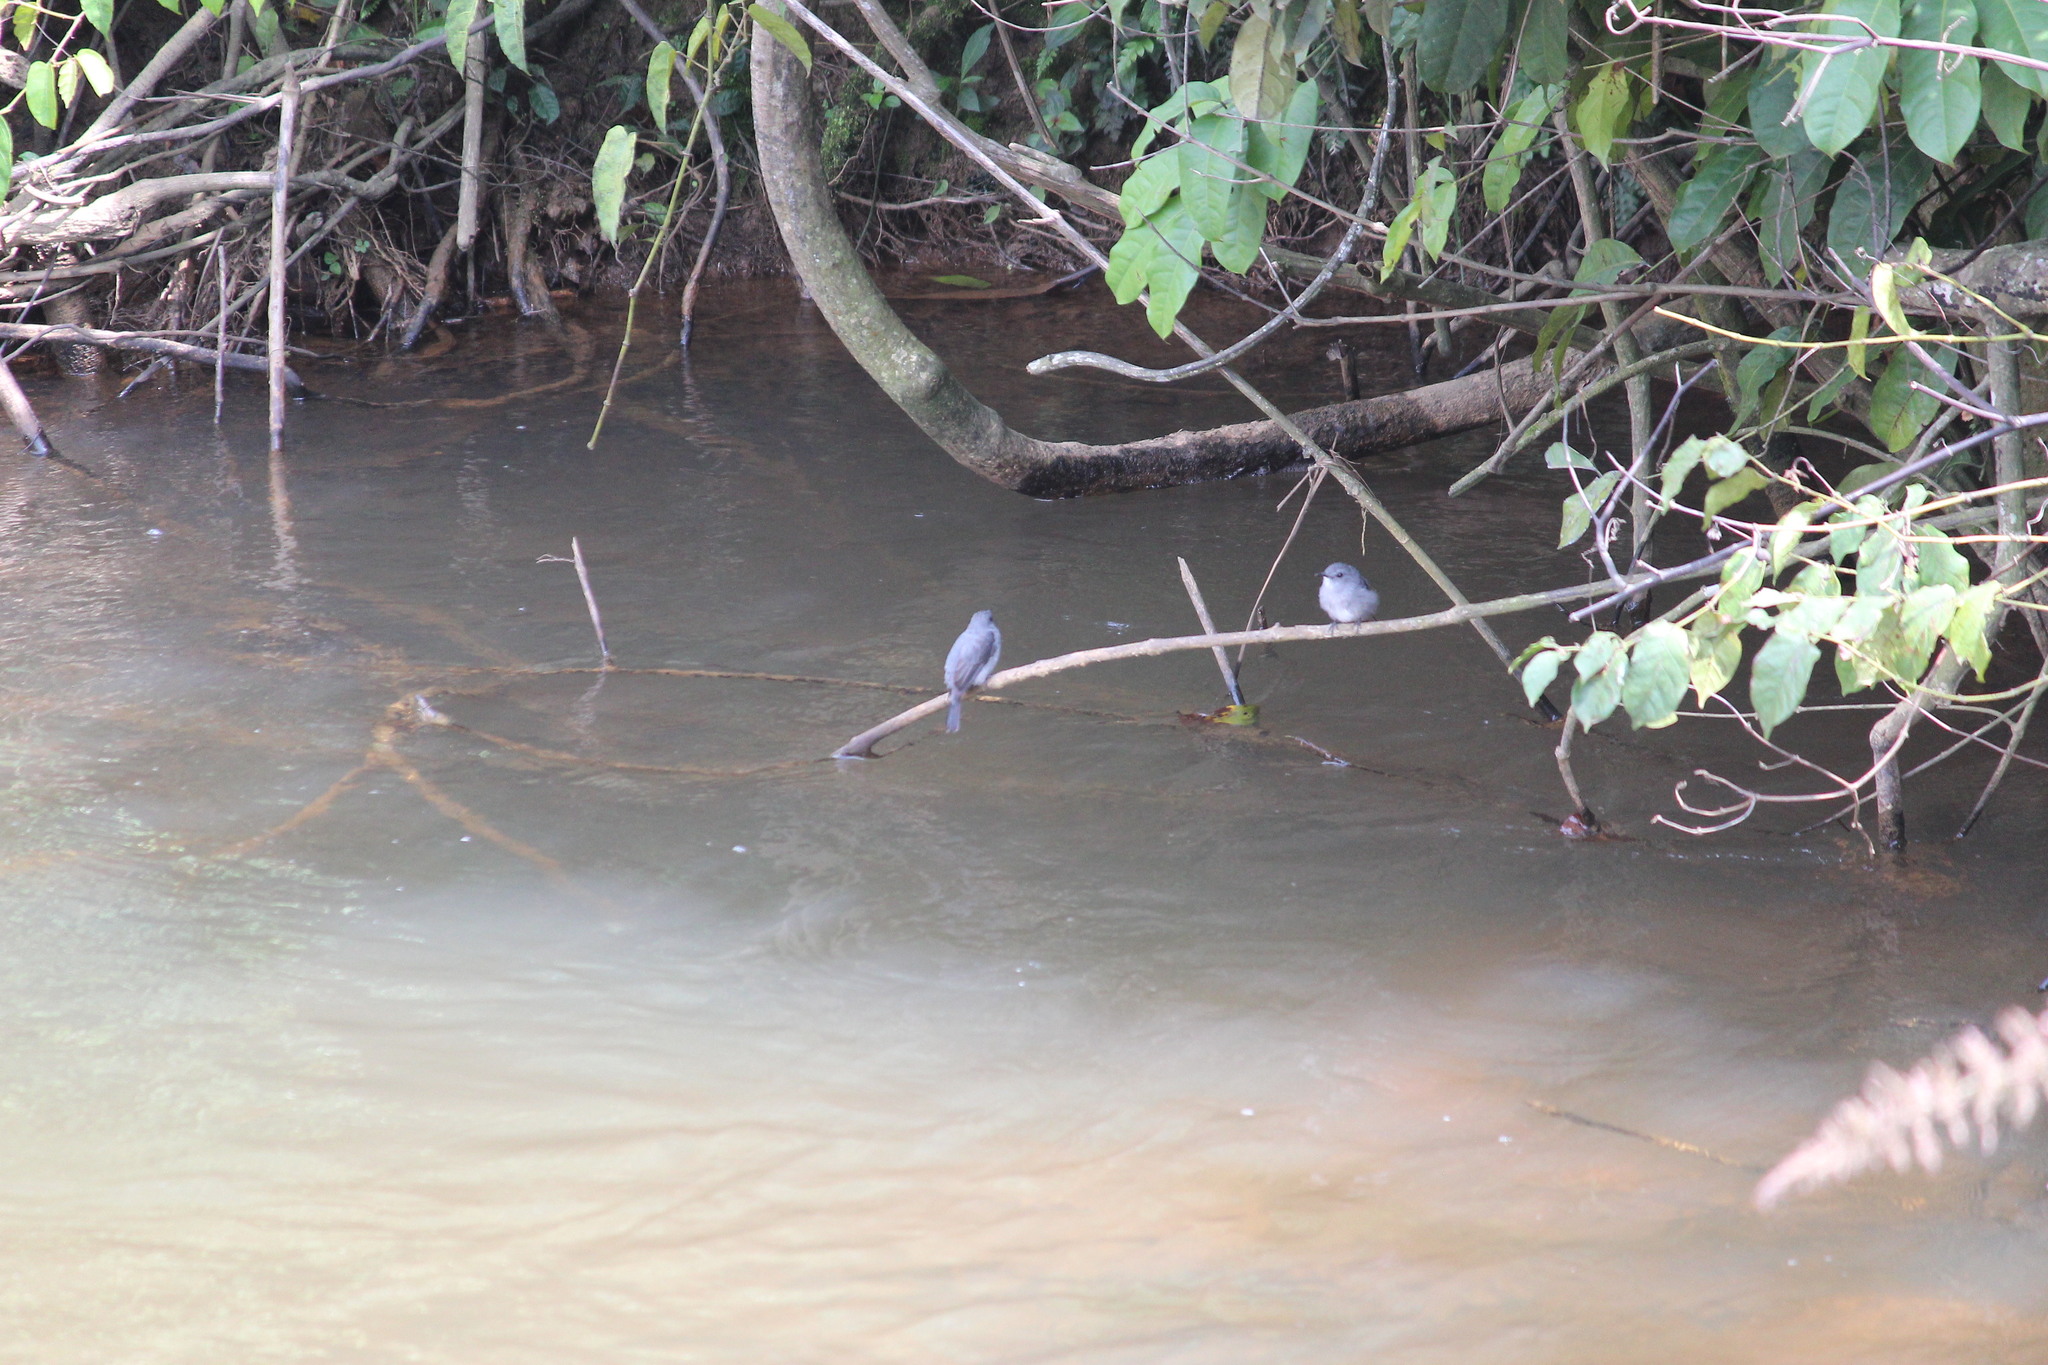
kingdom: Animalia
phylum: Chordata
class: Aves
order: Passeriformes
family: Muscicapidae
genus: Muscicapa
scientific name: Muscicapa cassini
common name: Cassin's flycatcher
